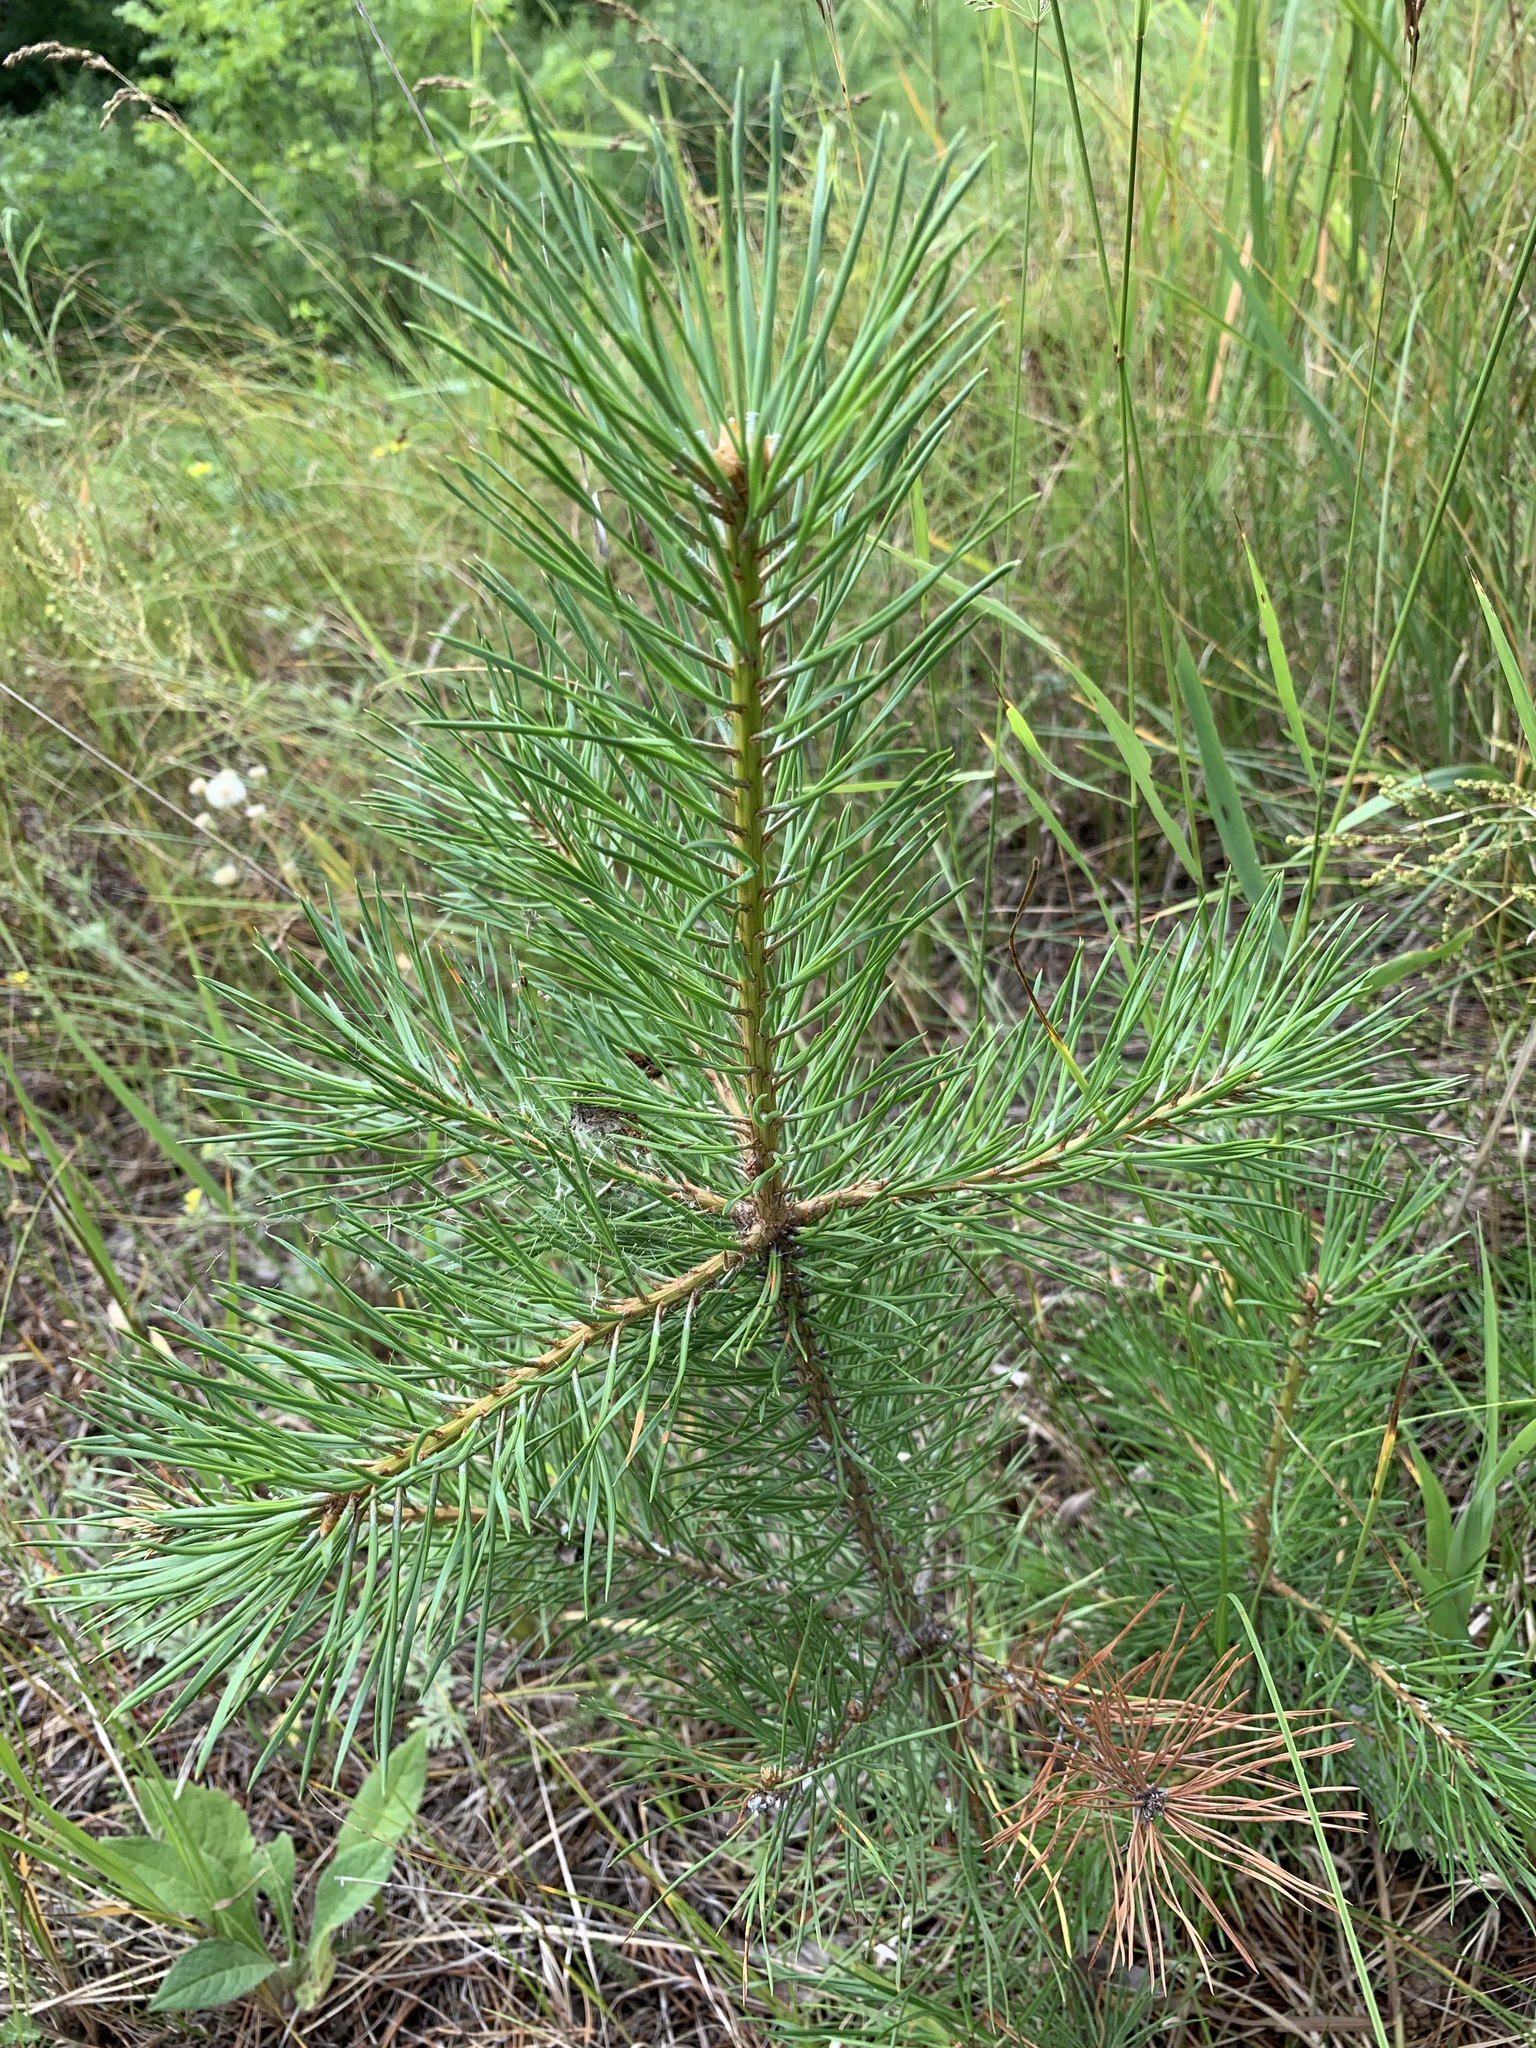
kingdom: Plantae
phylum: Tracheophyta
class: Pinopsida
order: Pinales
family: Pinaceae
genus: Pinus
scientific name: Pinus sylvestris
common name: Scots pine
